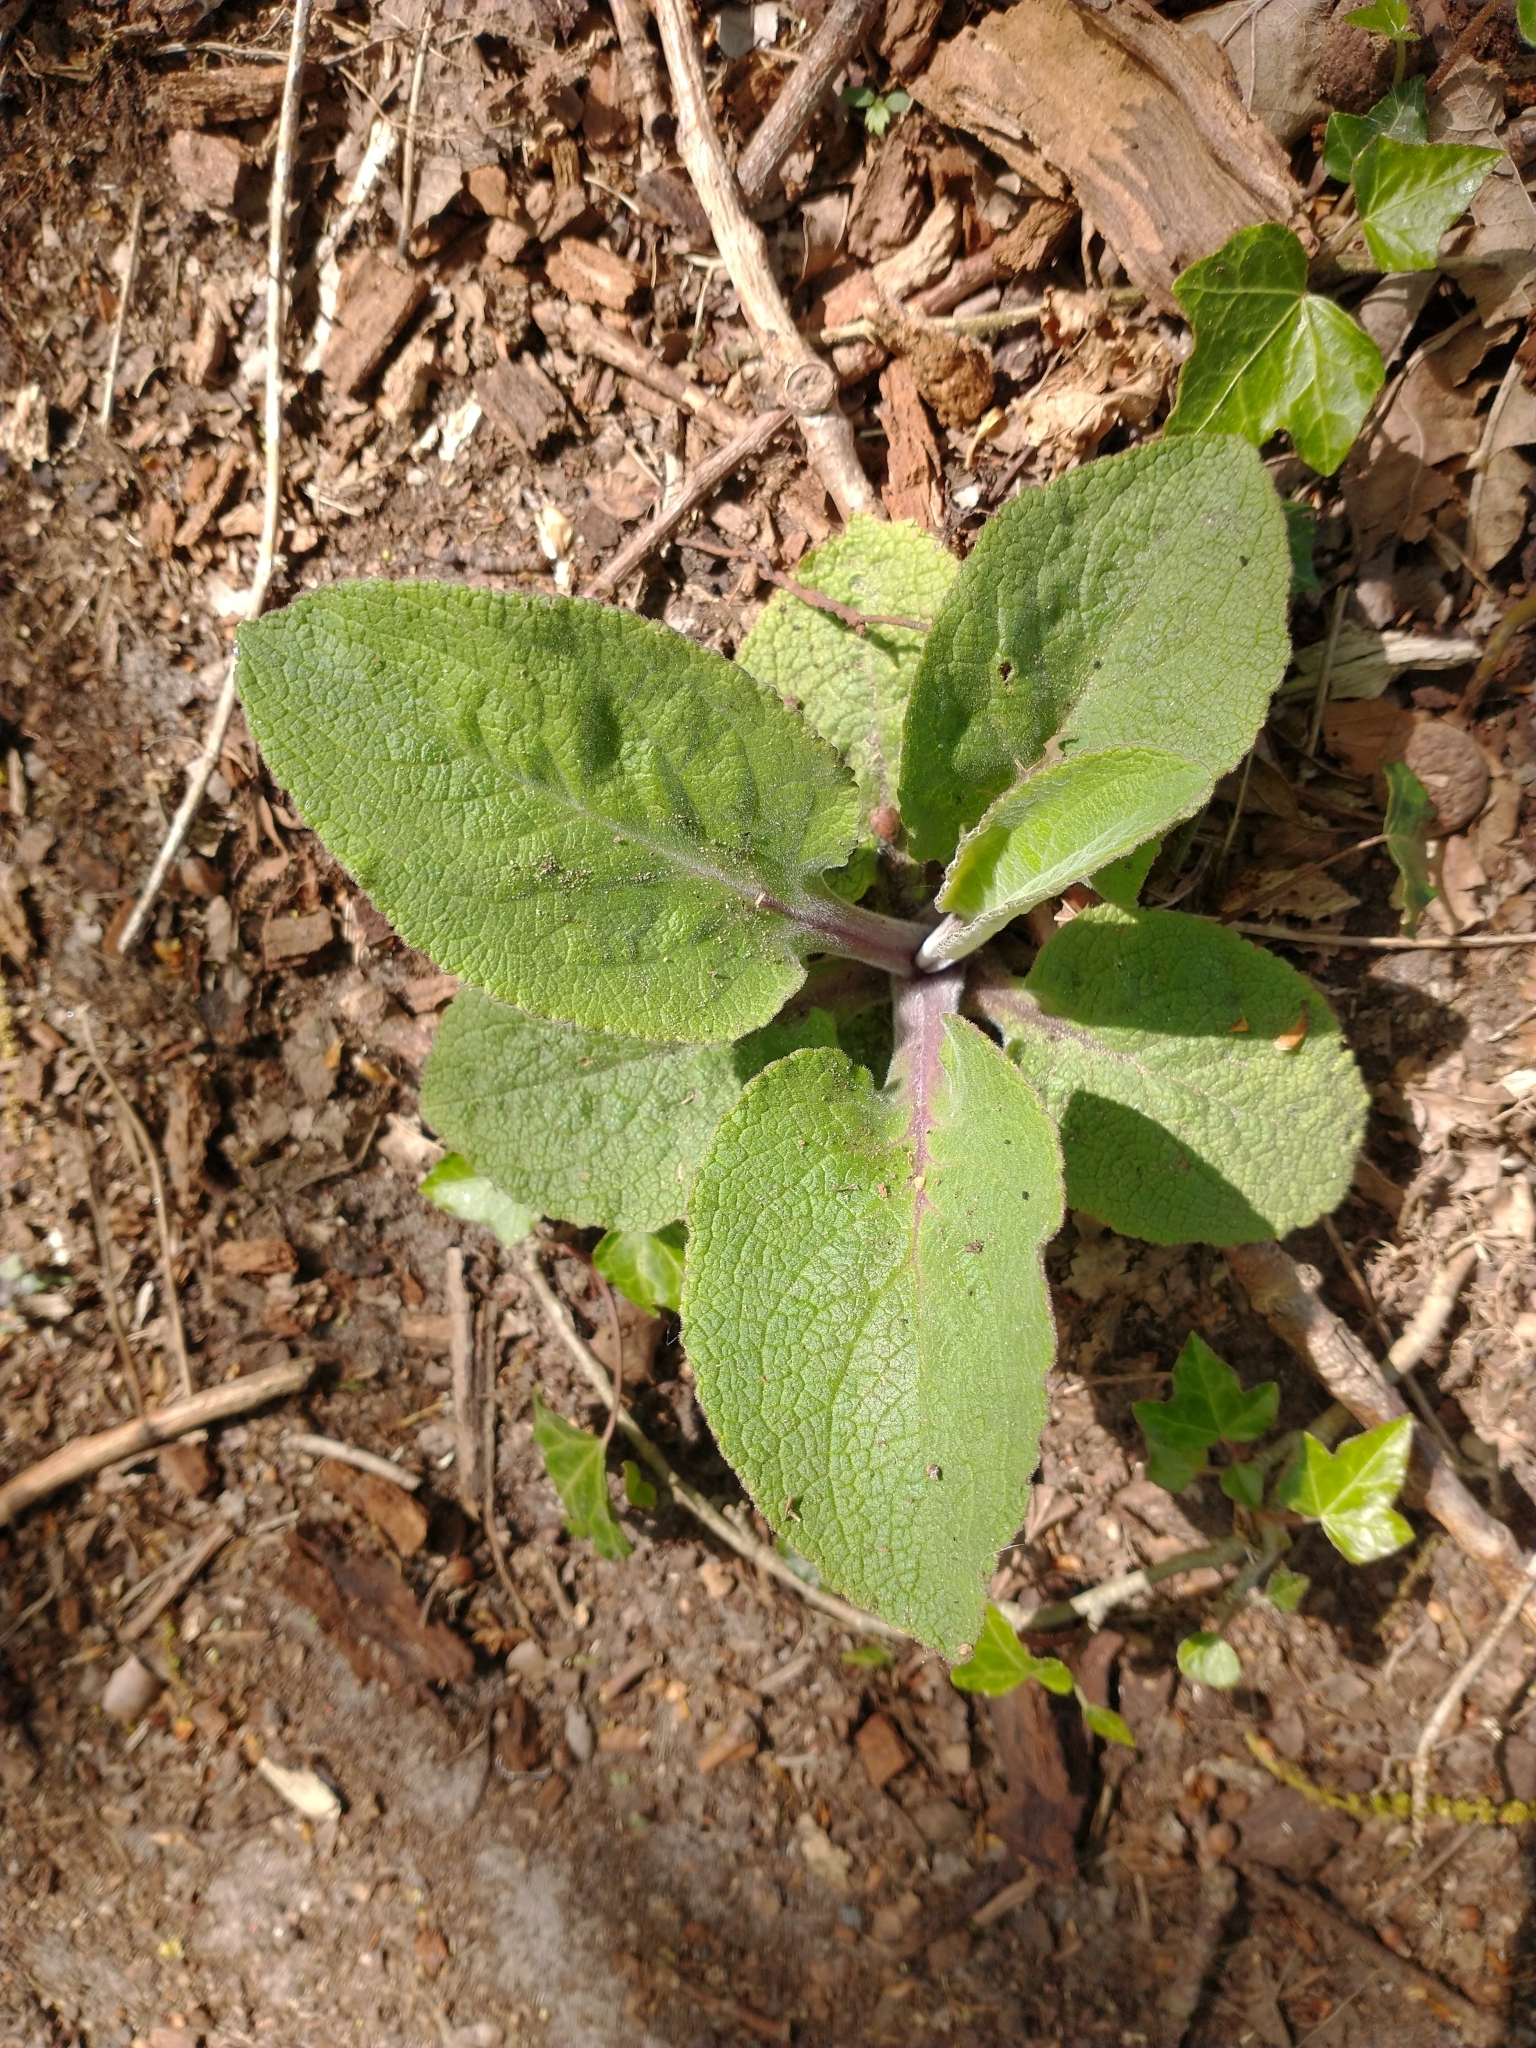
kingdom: Plantae
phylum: Tracheophyta
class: Magnoliopsida
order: Lamiales
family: Plantaginaceae
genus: Digitalis
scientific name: Digitalis purpurea
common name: Foxglove
